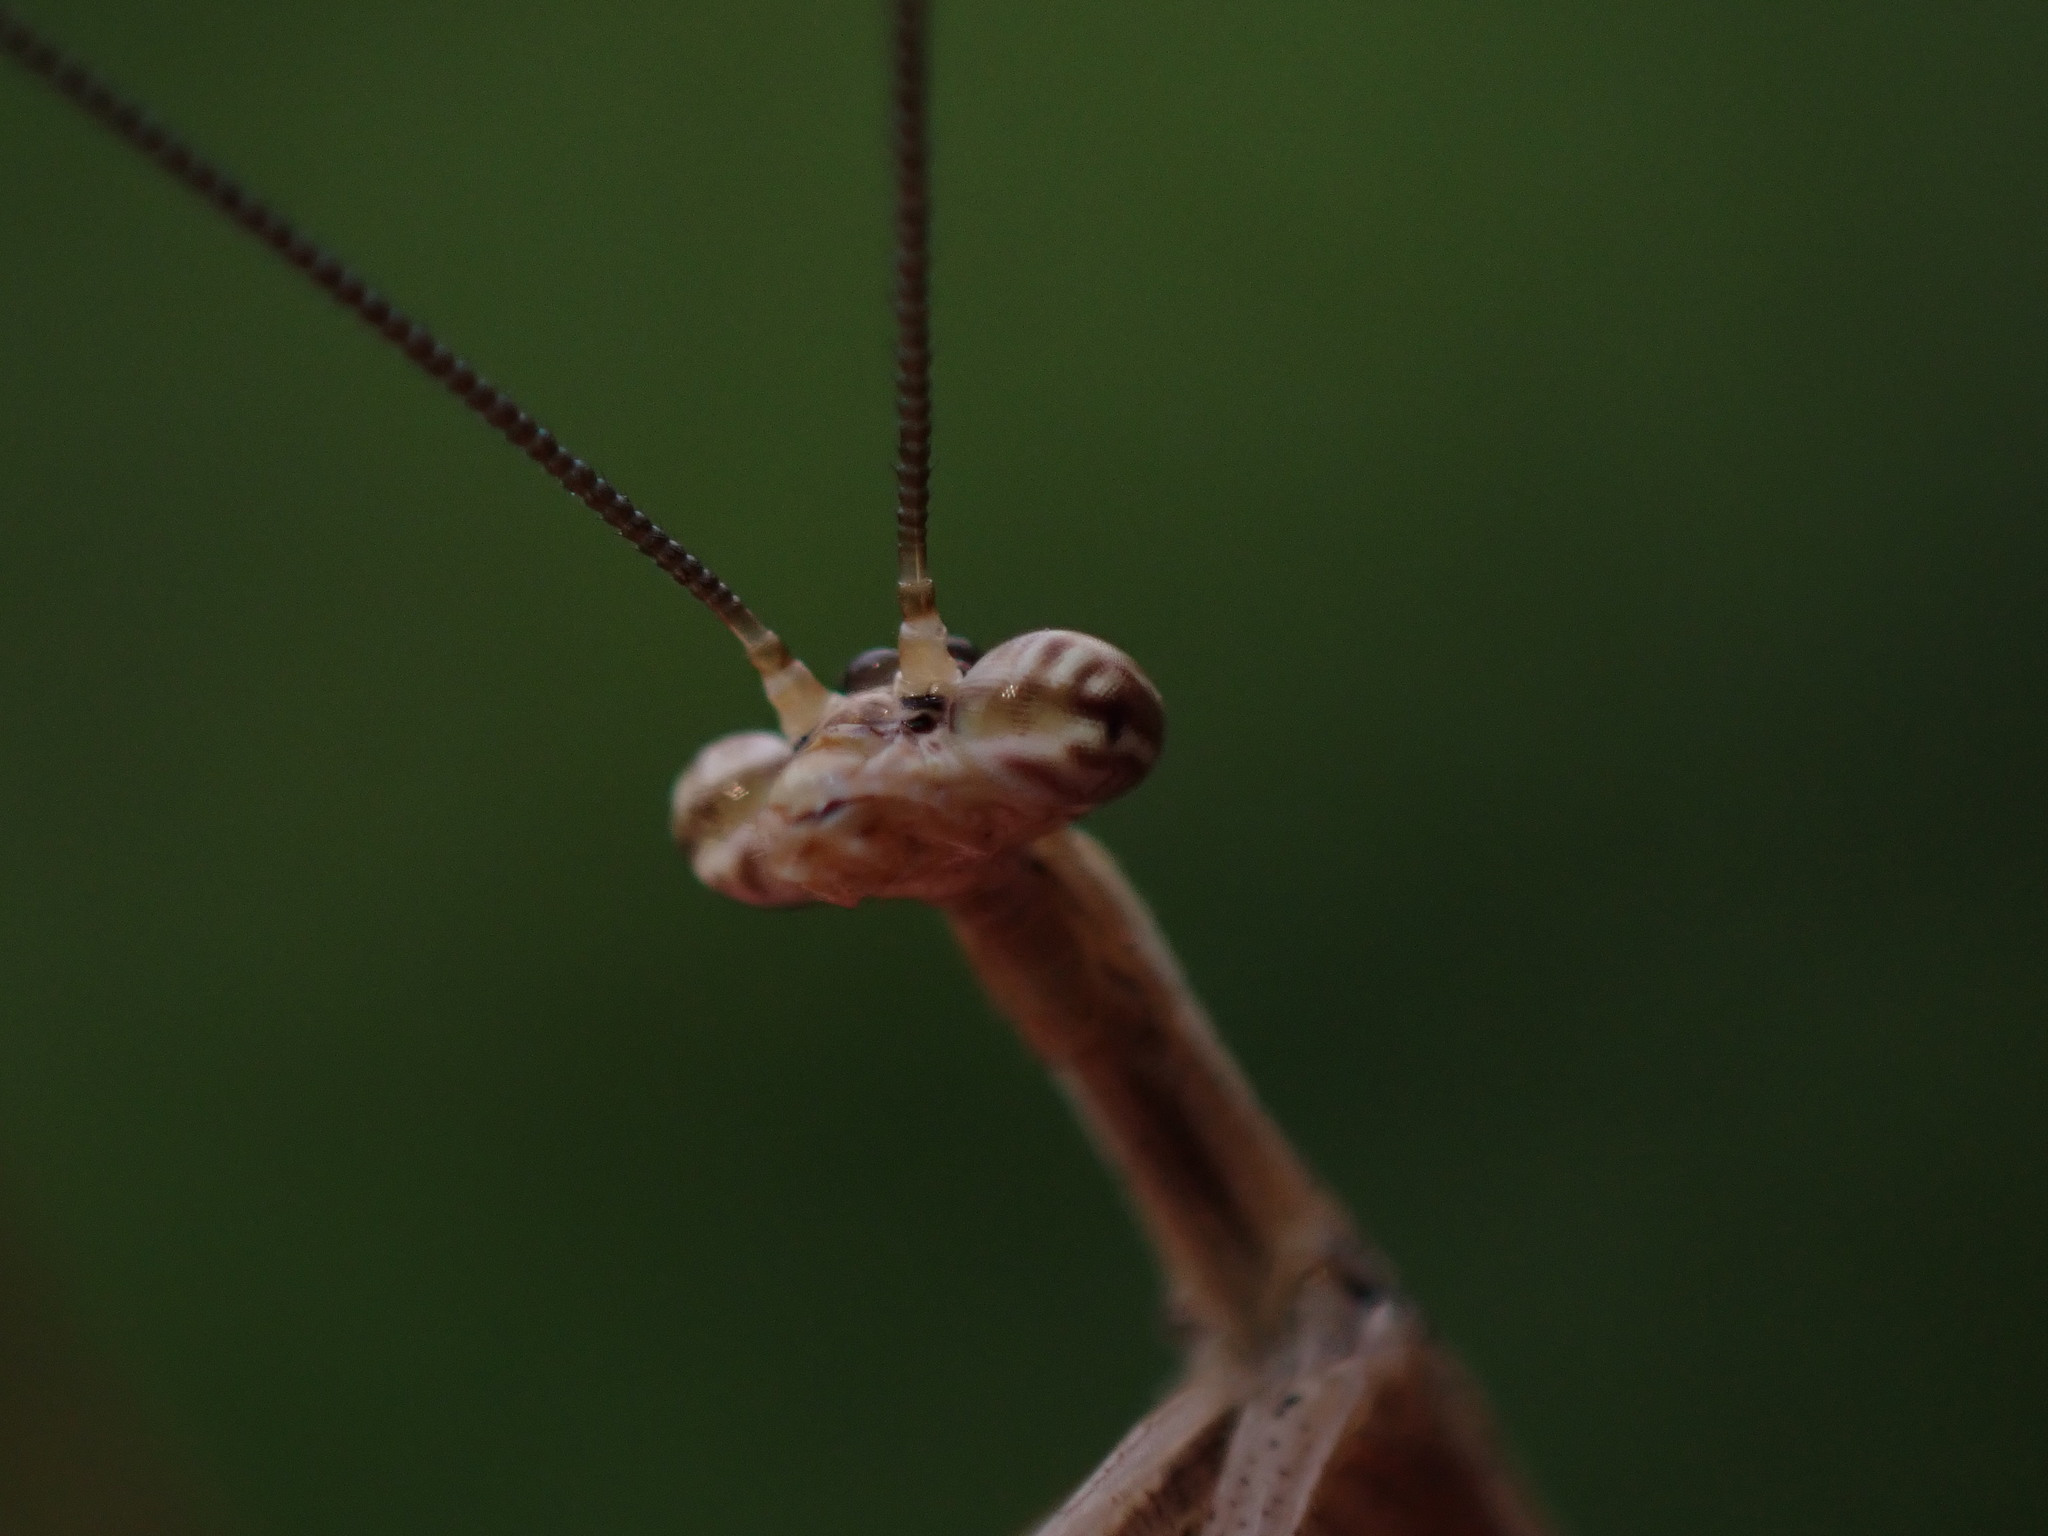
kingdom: Animalia
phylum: Arthropoda
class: Insecta
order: Mantodea
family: Thespidae
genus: Thesprotia
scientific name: Thesprotia graminis
